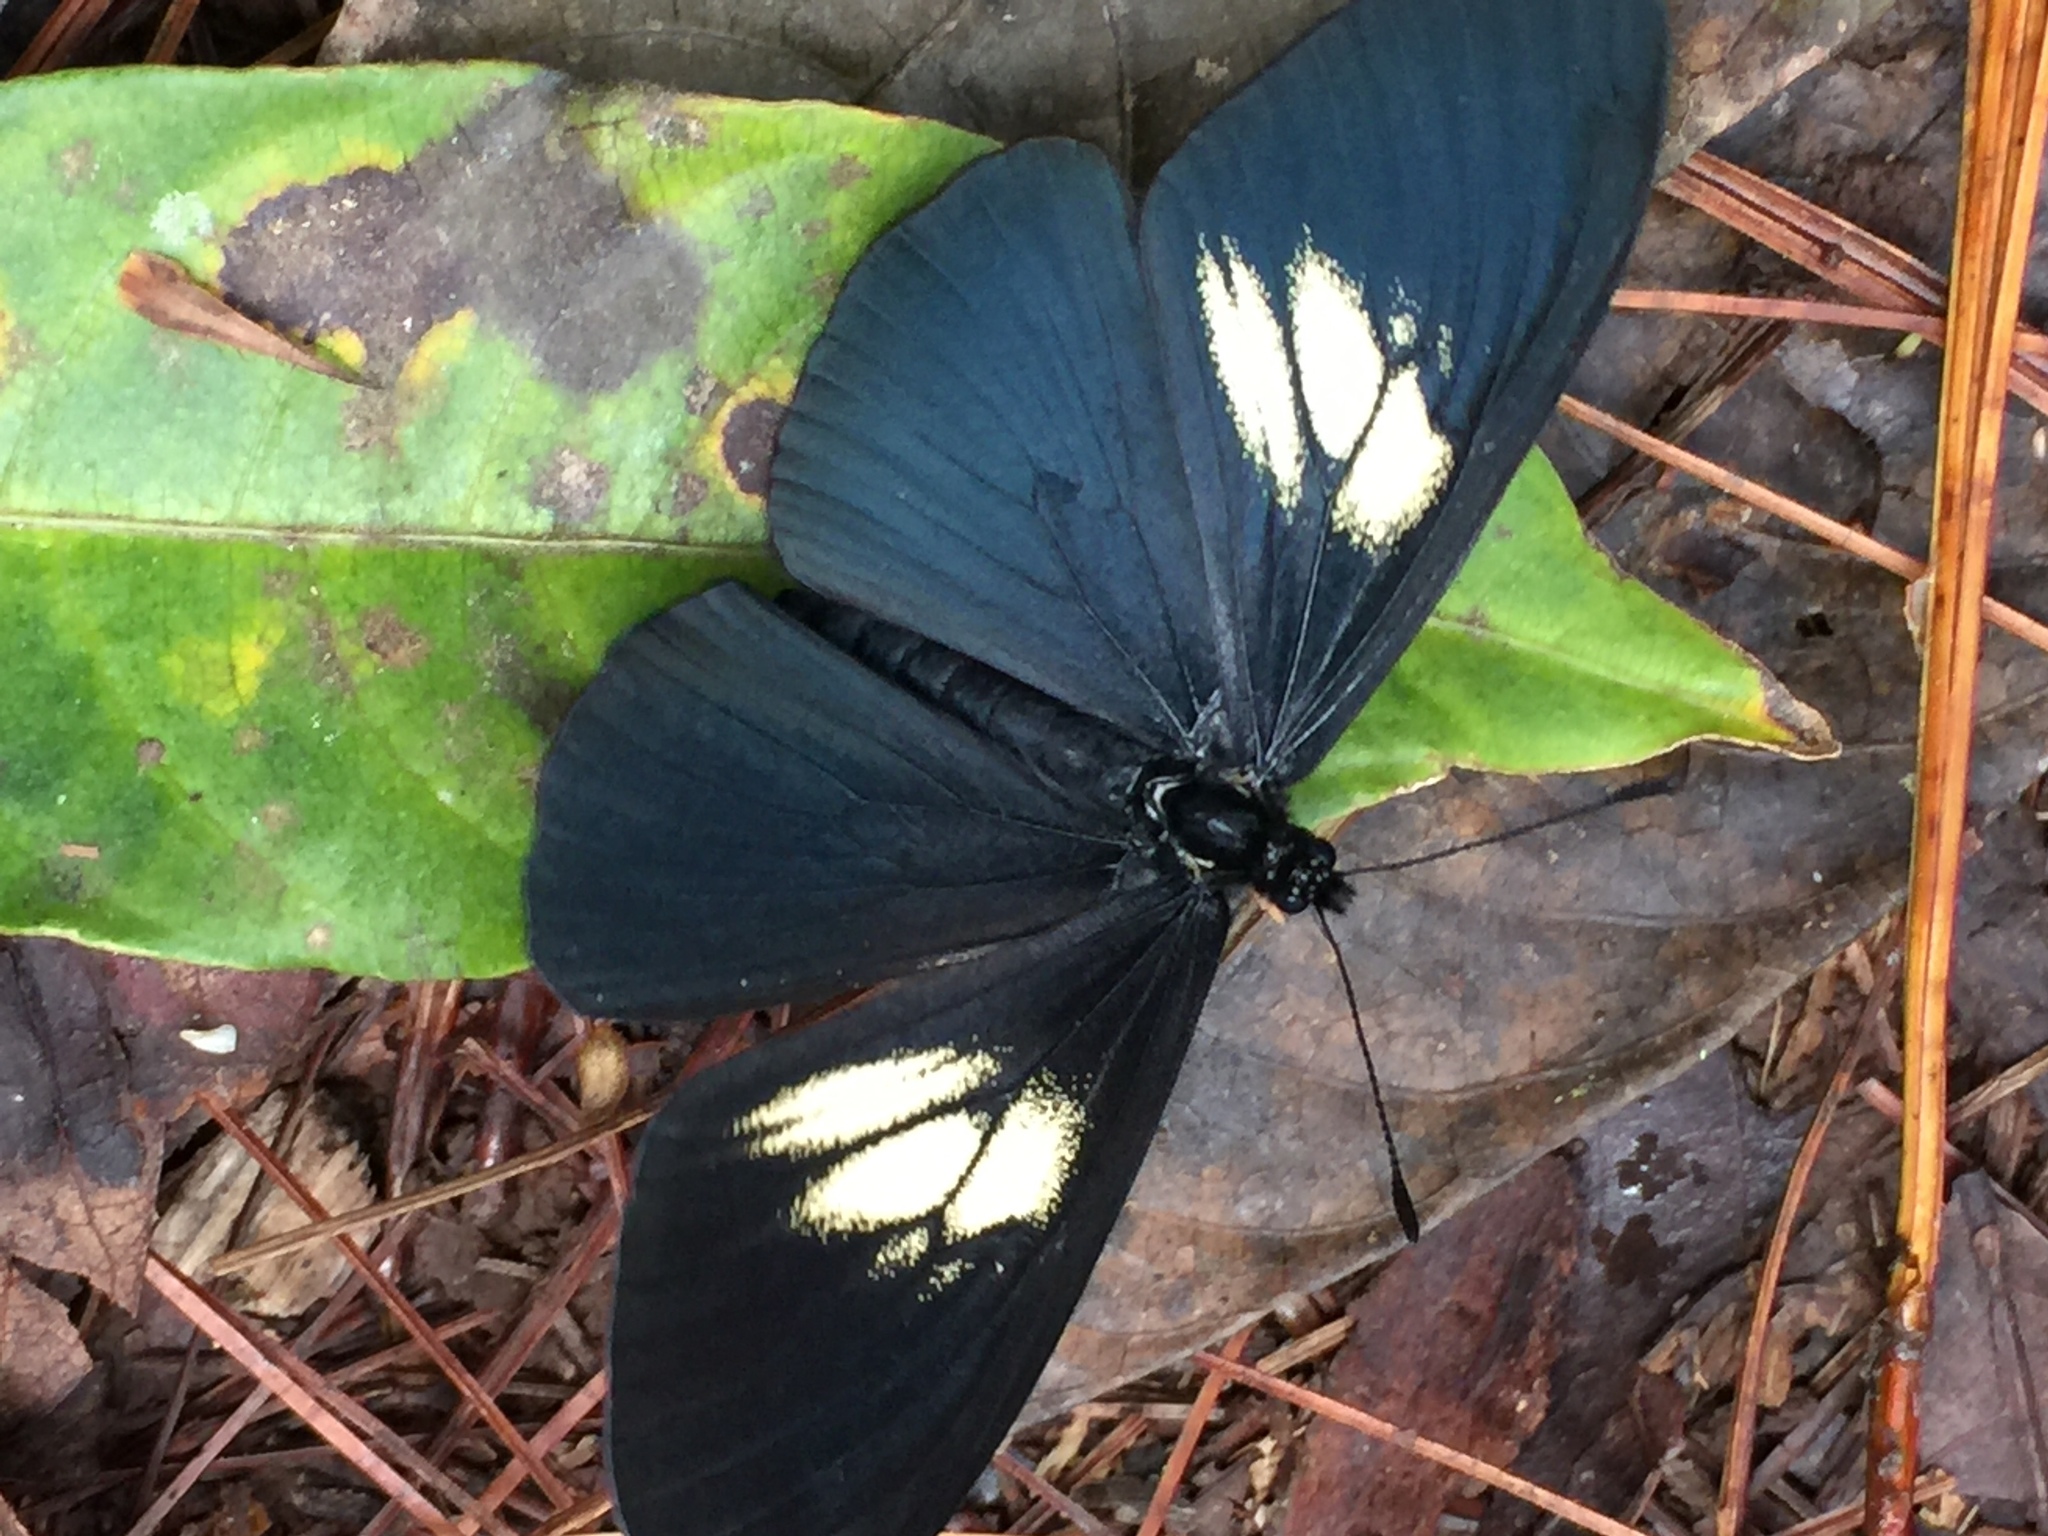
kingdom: Animalia
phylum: Arthropoda
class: Insecta
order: Lepidoptera
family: Nymphalidae
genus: Acraea
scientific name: Acraea Altinote ozomene
